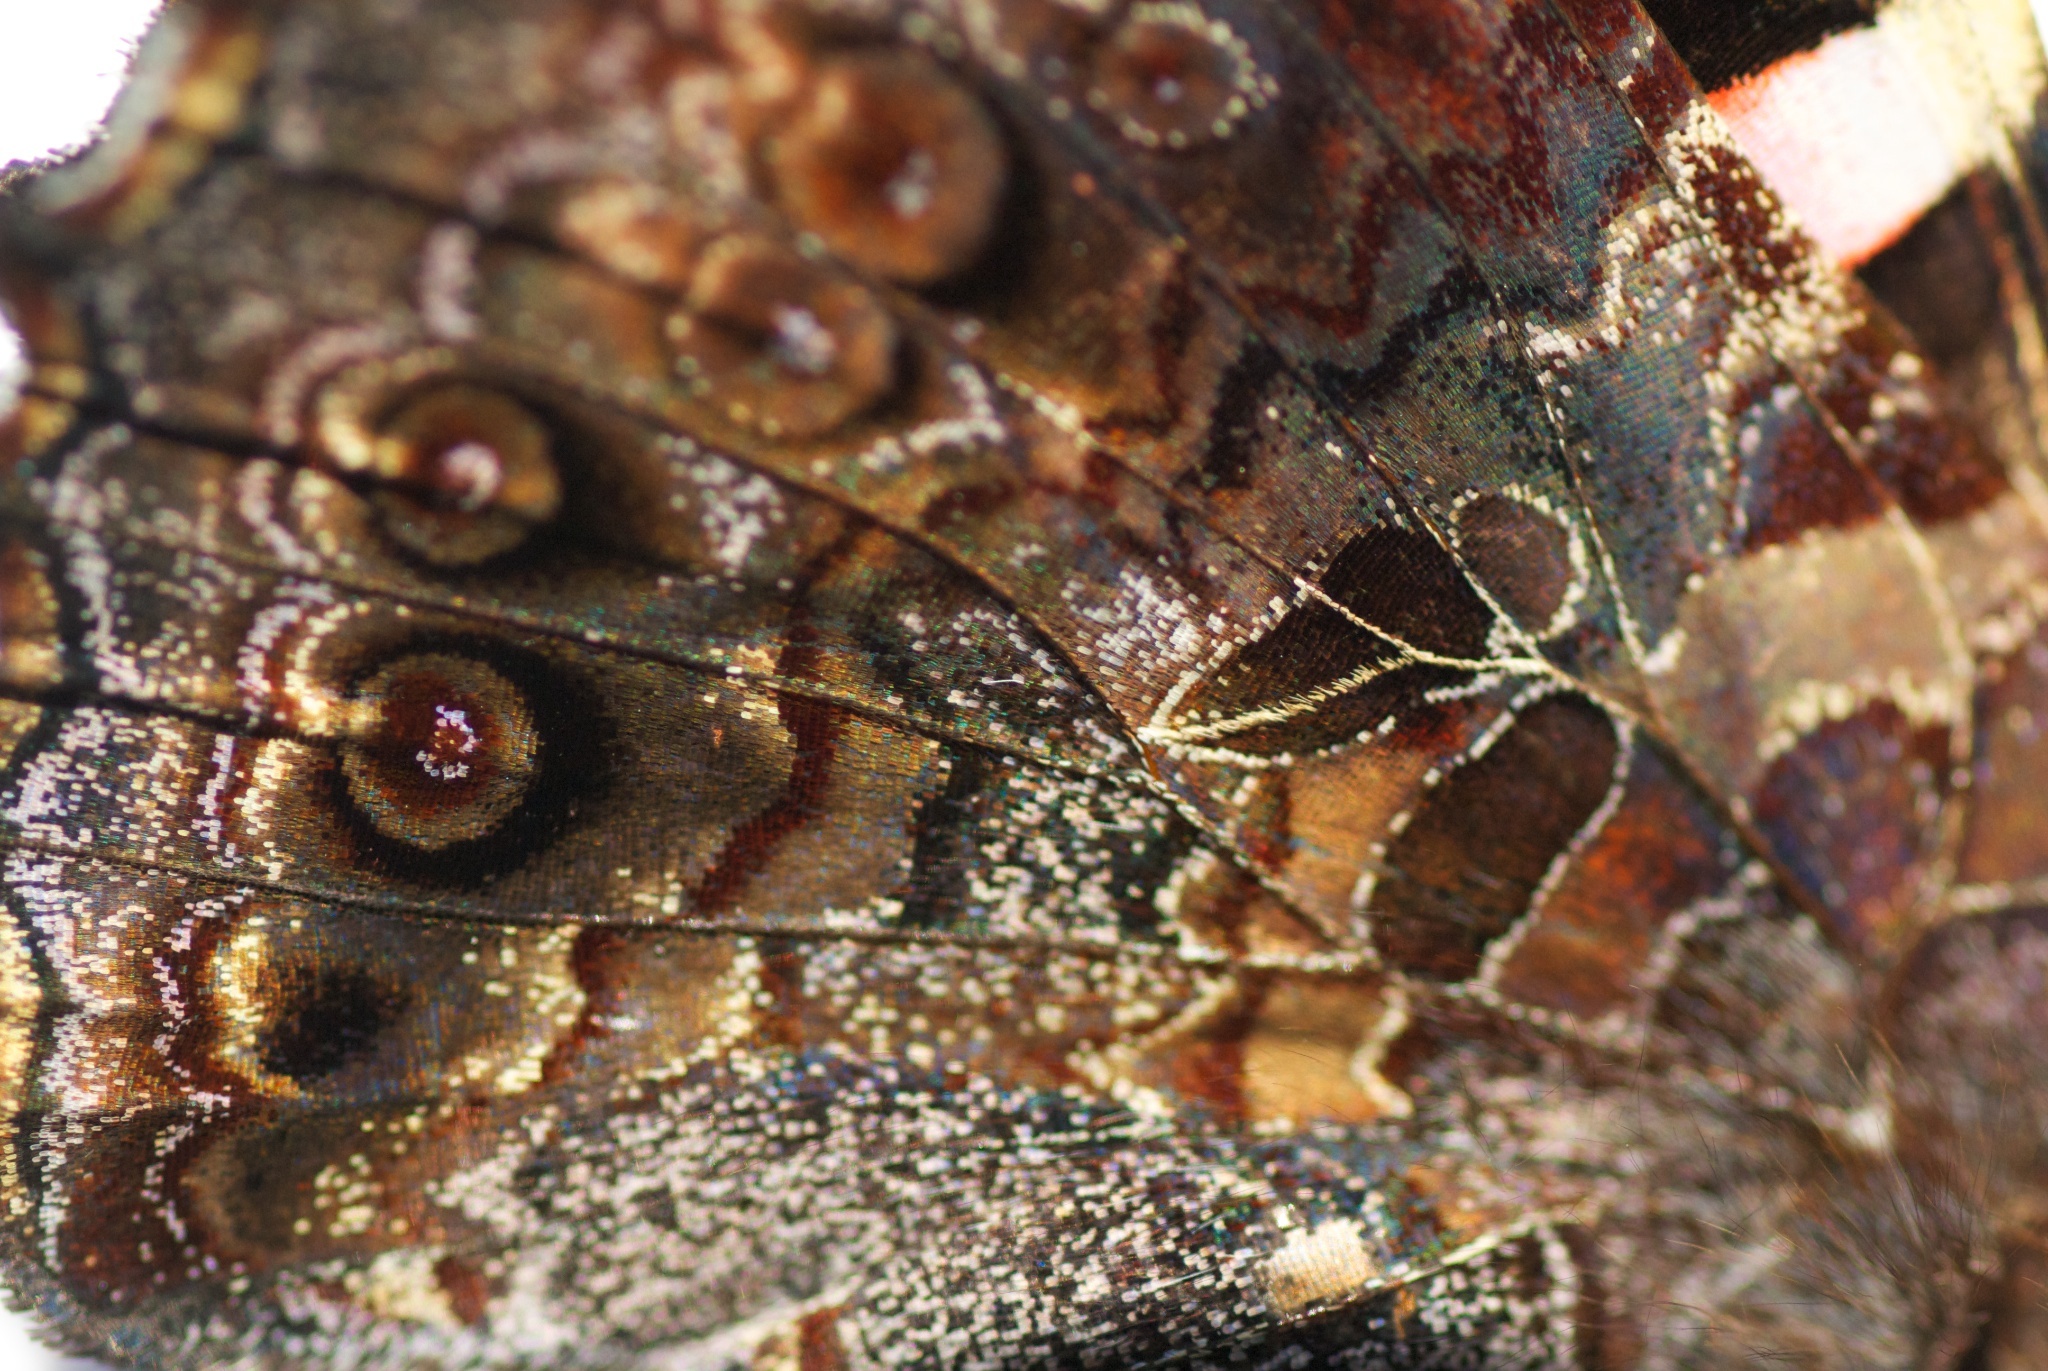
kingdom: Animalia
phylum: Arthropoda
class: Insecta
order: Lepidoptera
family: Nymphalidae
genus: Vanessa
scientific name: Vanessa gonerilla
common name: New zealand red admiral
